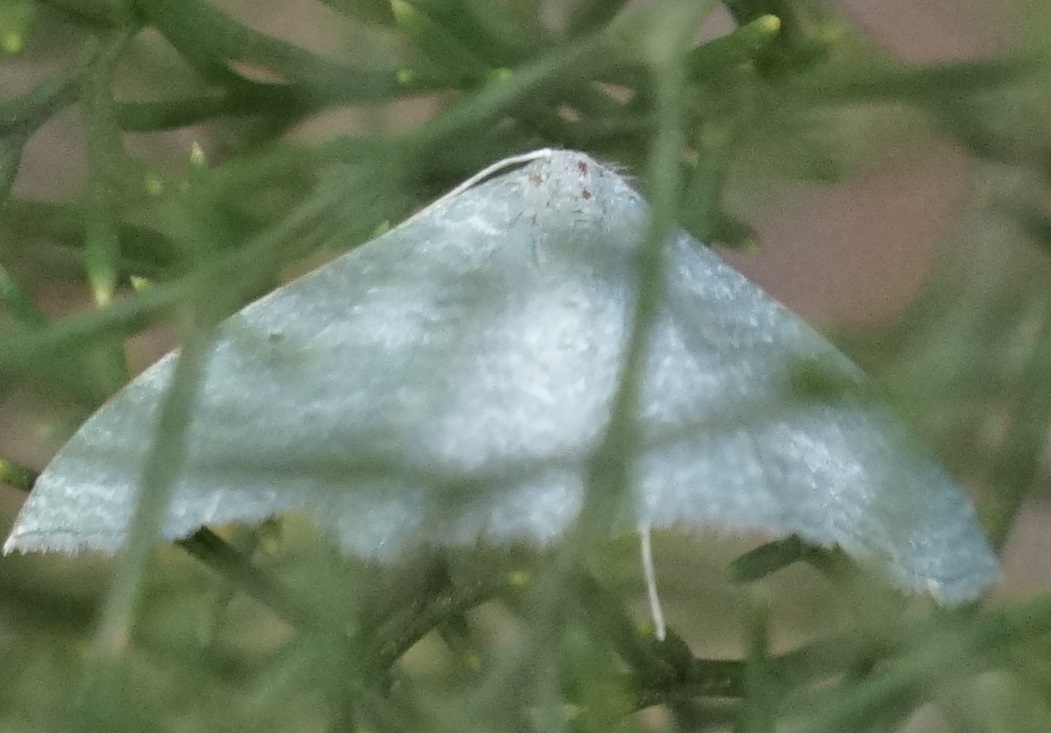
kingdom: Animalia
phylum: Arthropoda
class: Insecta
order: Lepidoptera
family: Geometridae
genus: Poecilasthena
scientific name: Poecilasthena thalassias
